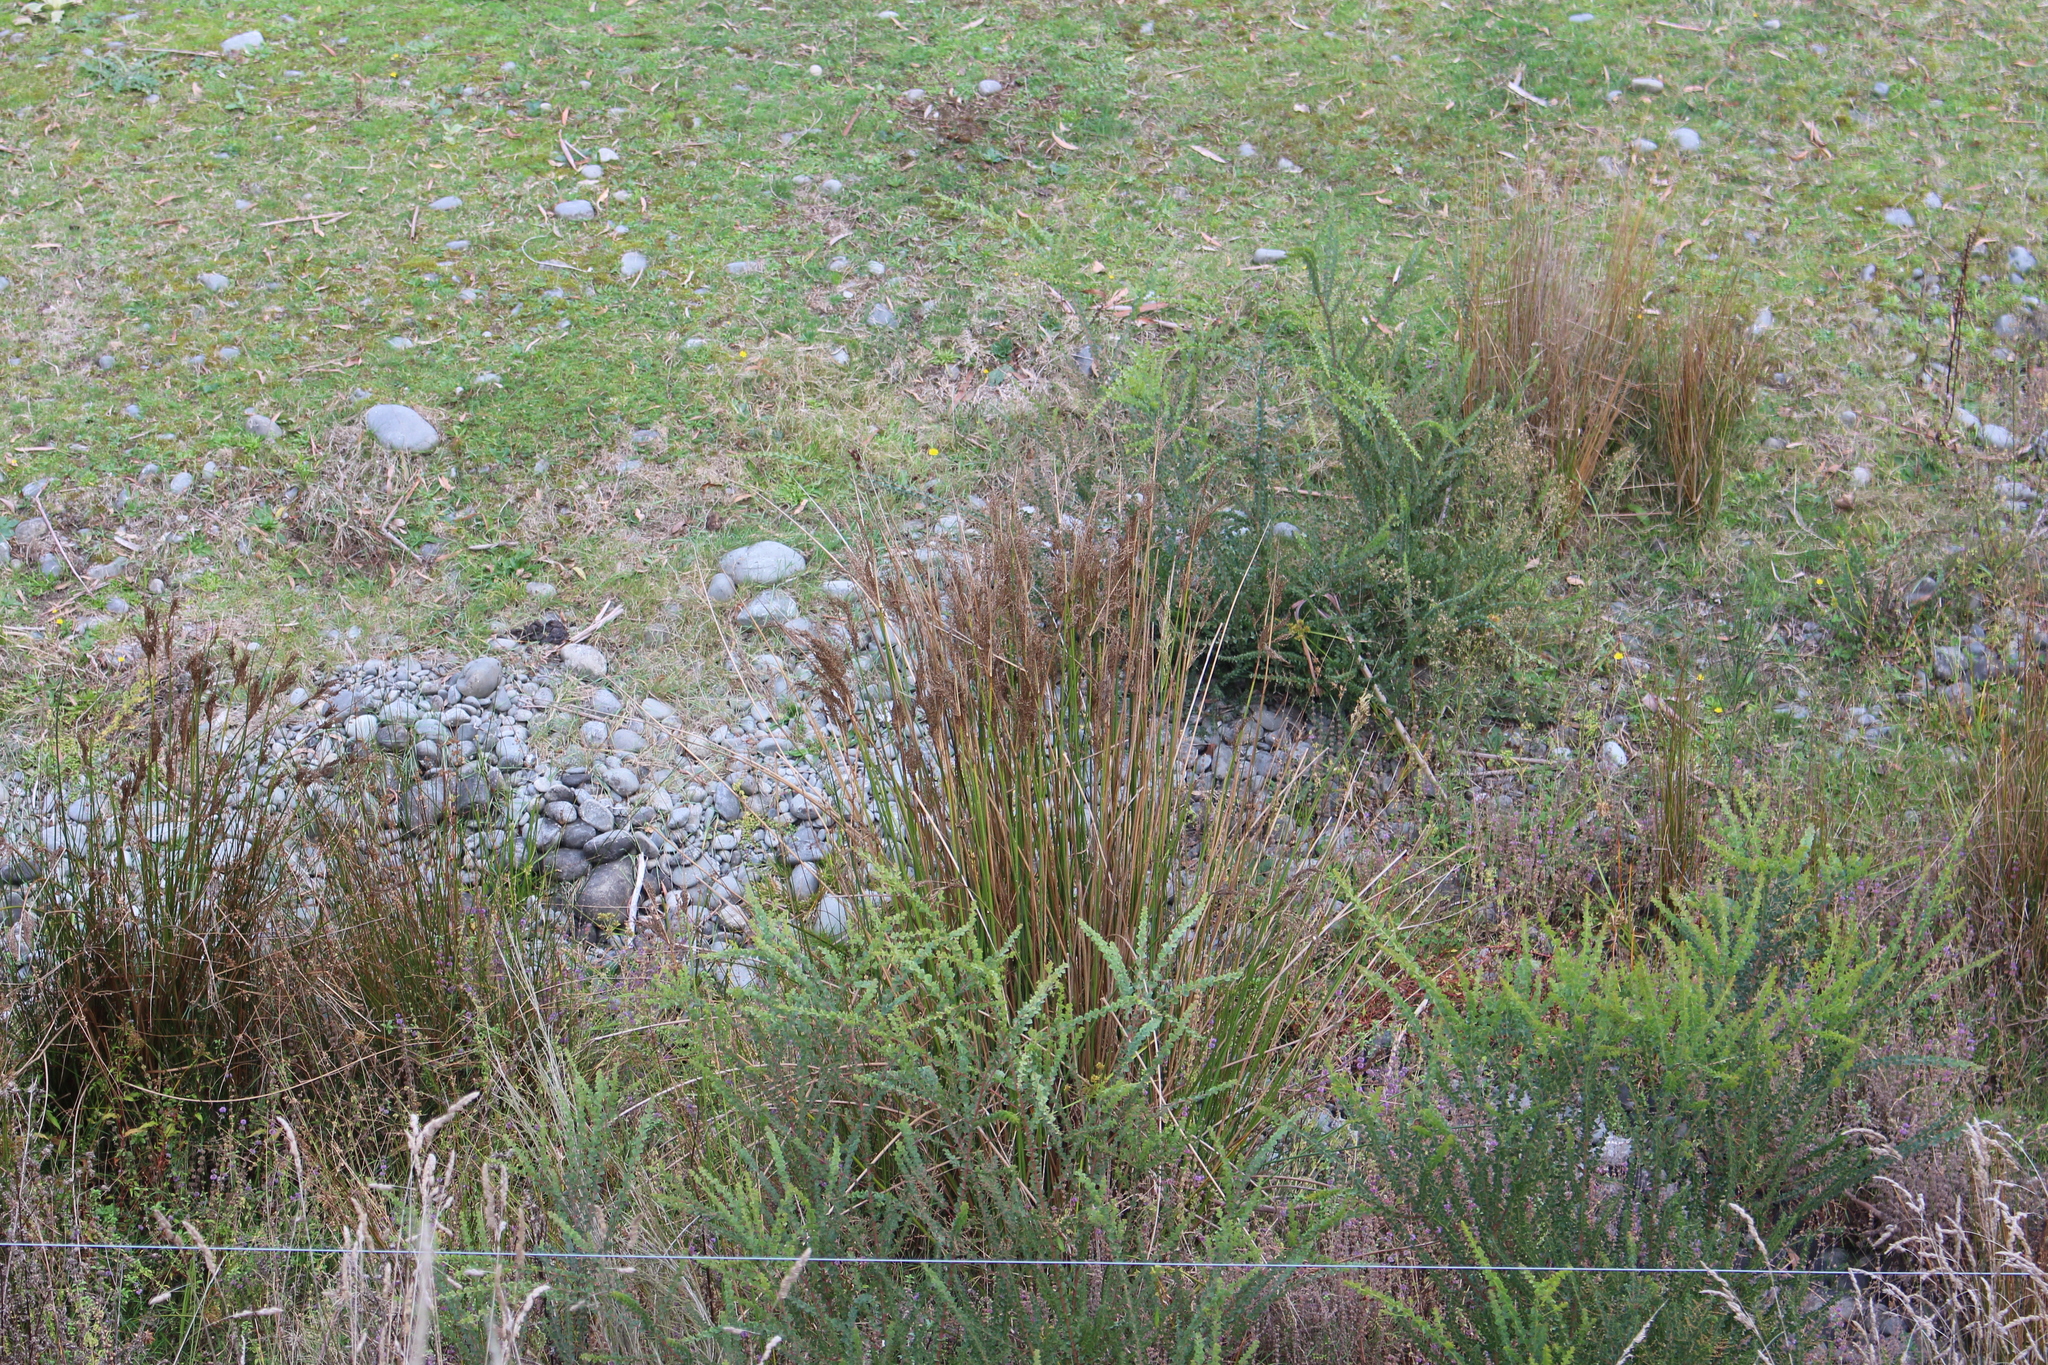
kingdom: Plantae
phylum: Tracheophyta
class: Liliopsida
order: Poales
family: Juncaceae
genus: Juncus
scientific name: Juncus pallidus
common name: Great soft-rush
